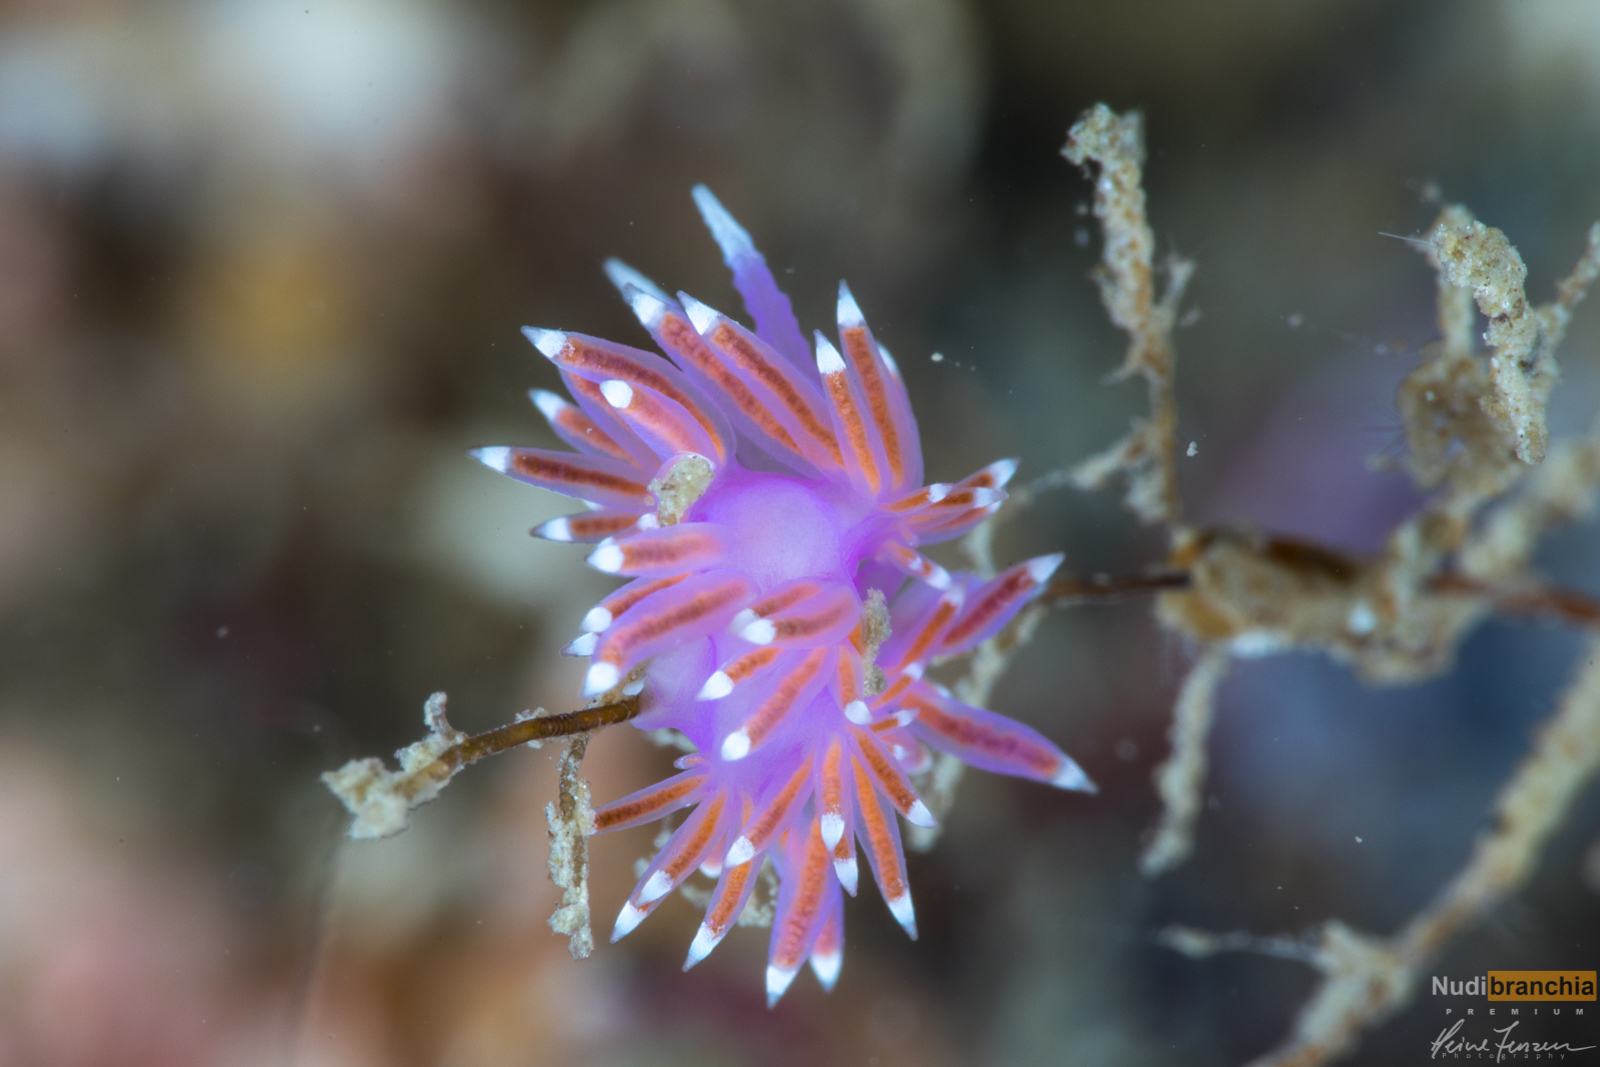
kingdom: Animalia
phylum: Mollusca
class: Gastropoda
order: Nudibranchia
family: Flabellinidae
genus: Edmundsella
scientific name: Edmundsella pedata
